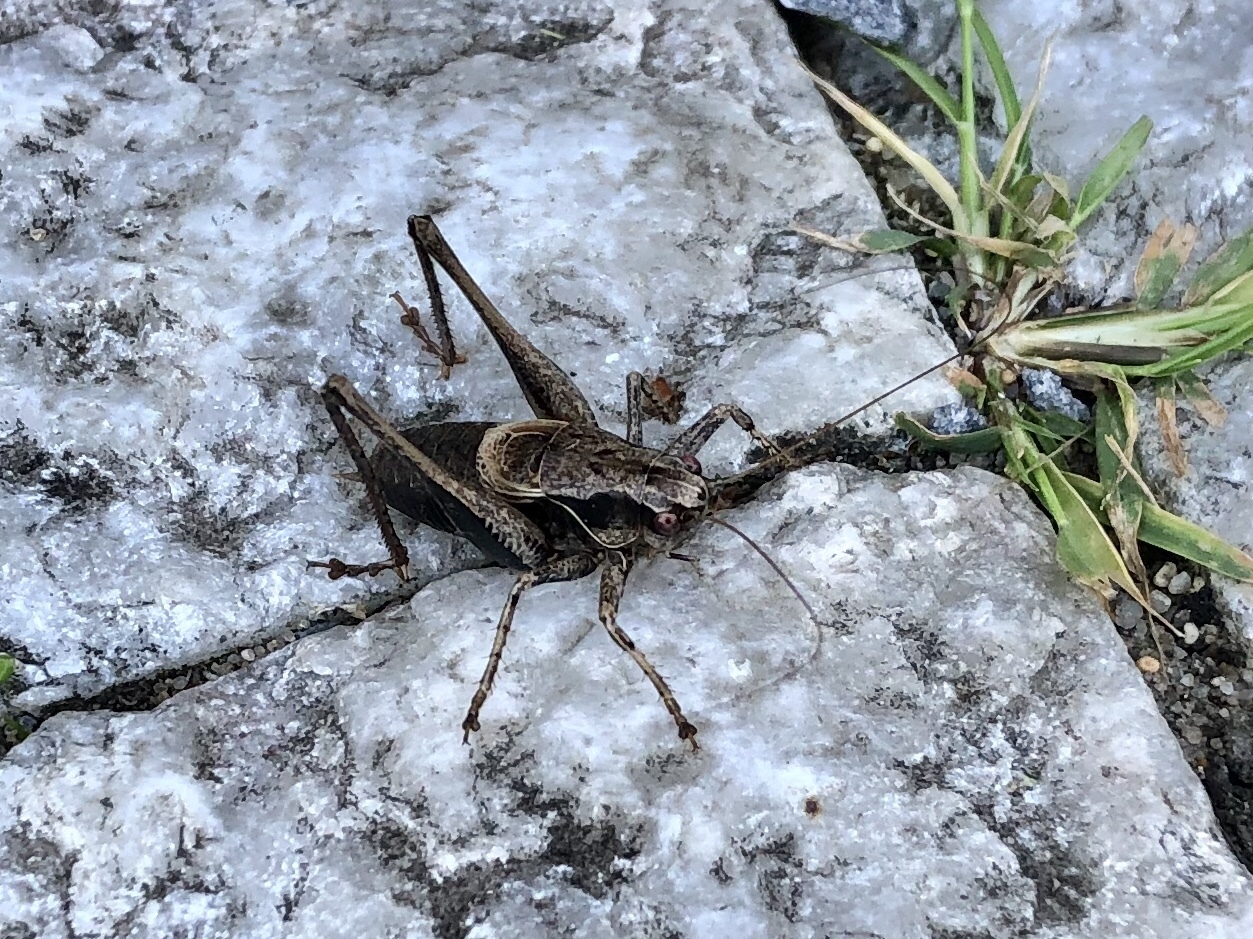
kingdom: Animalia
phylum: Arthropoda
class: Insecta
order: Orthoptera
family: Tettigoniidae
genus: Pholidoptera
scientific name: Pholidoptera griseoaptera
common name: Dark bush-cricket
